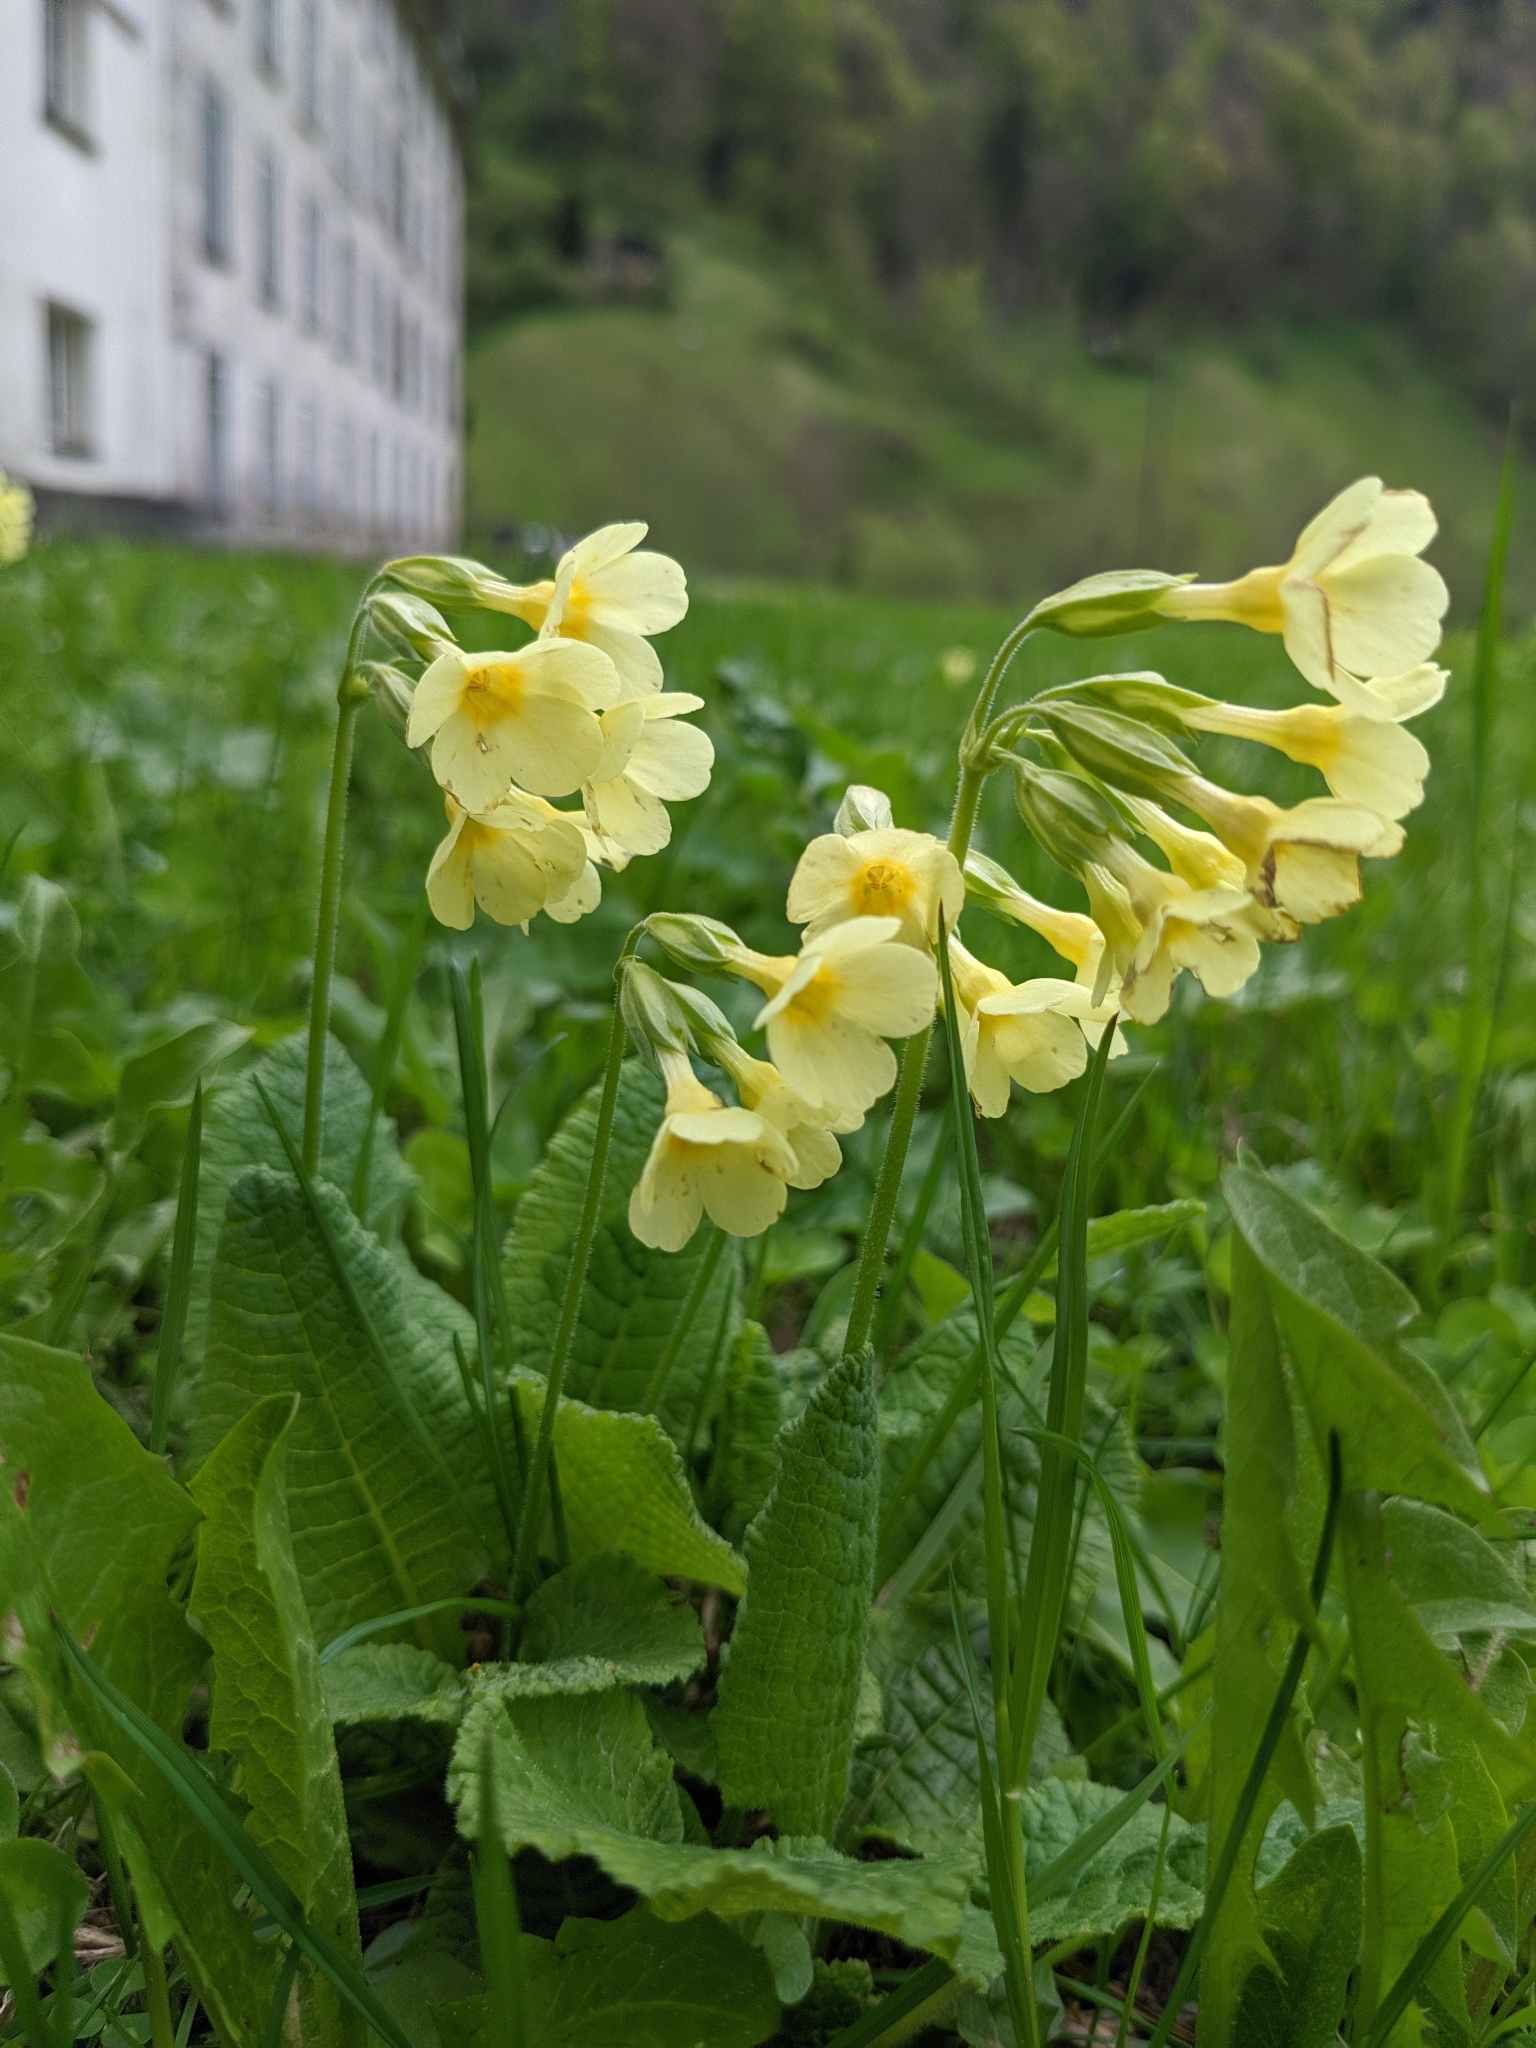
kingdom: Plantae
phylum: Tracheophyta
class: Magnoliopsida
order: Ericales
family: Primulaceae
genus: Primula
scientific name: Primula elatior
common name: Oxlip
